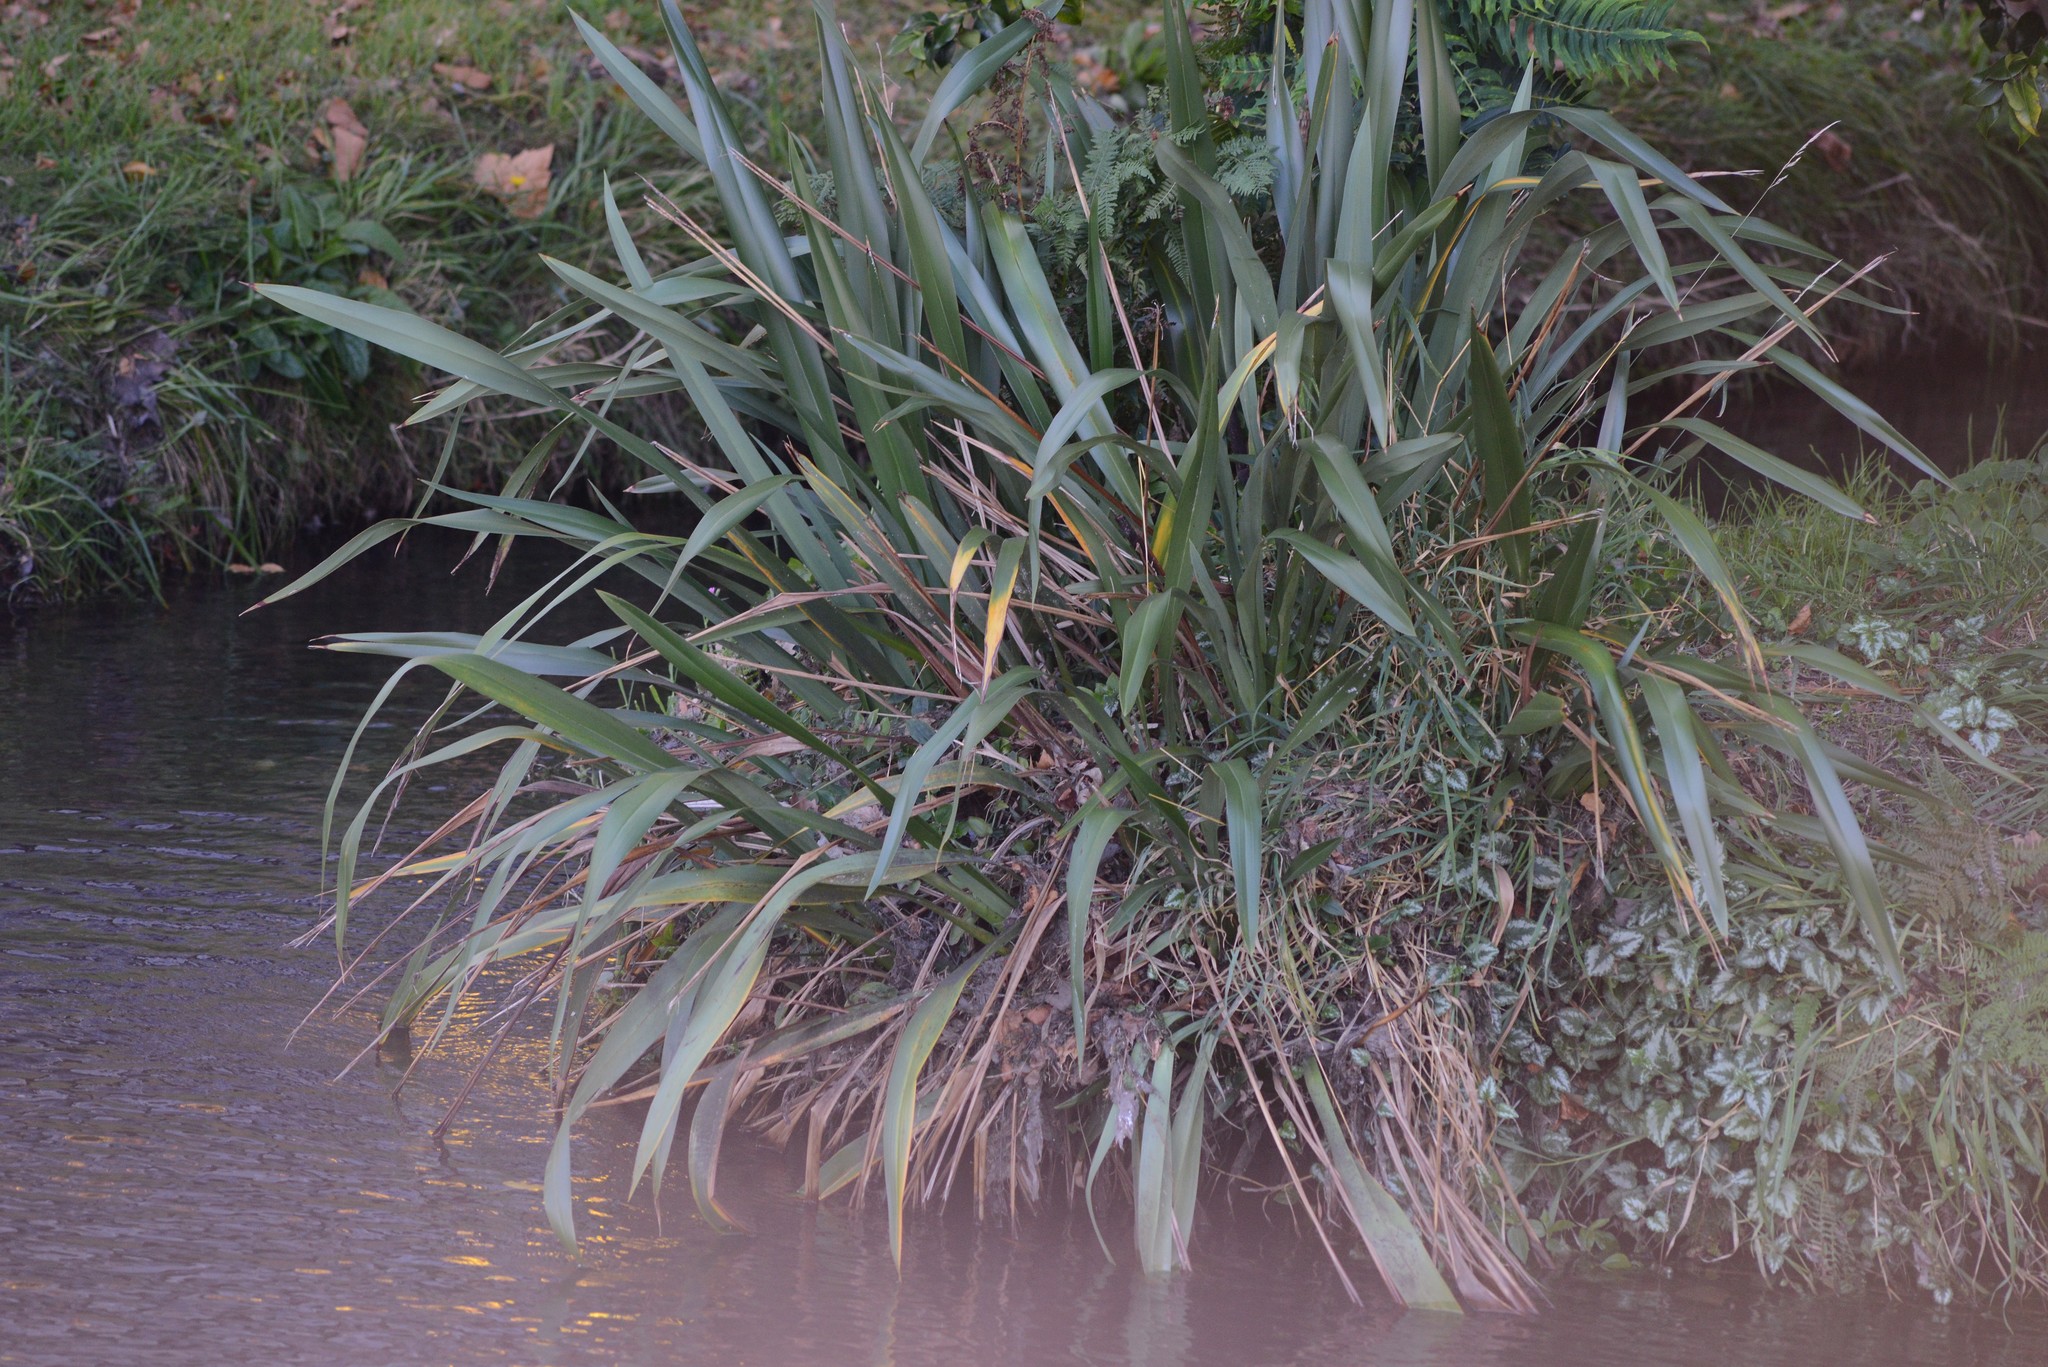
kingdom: Plantae
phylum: Tracheophyta
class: Magnoliopsida
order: Lamiales
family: Lamiaceae
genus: Lamium
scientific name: Lamium galeobdolon
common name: Yellow archangel
